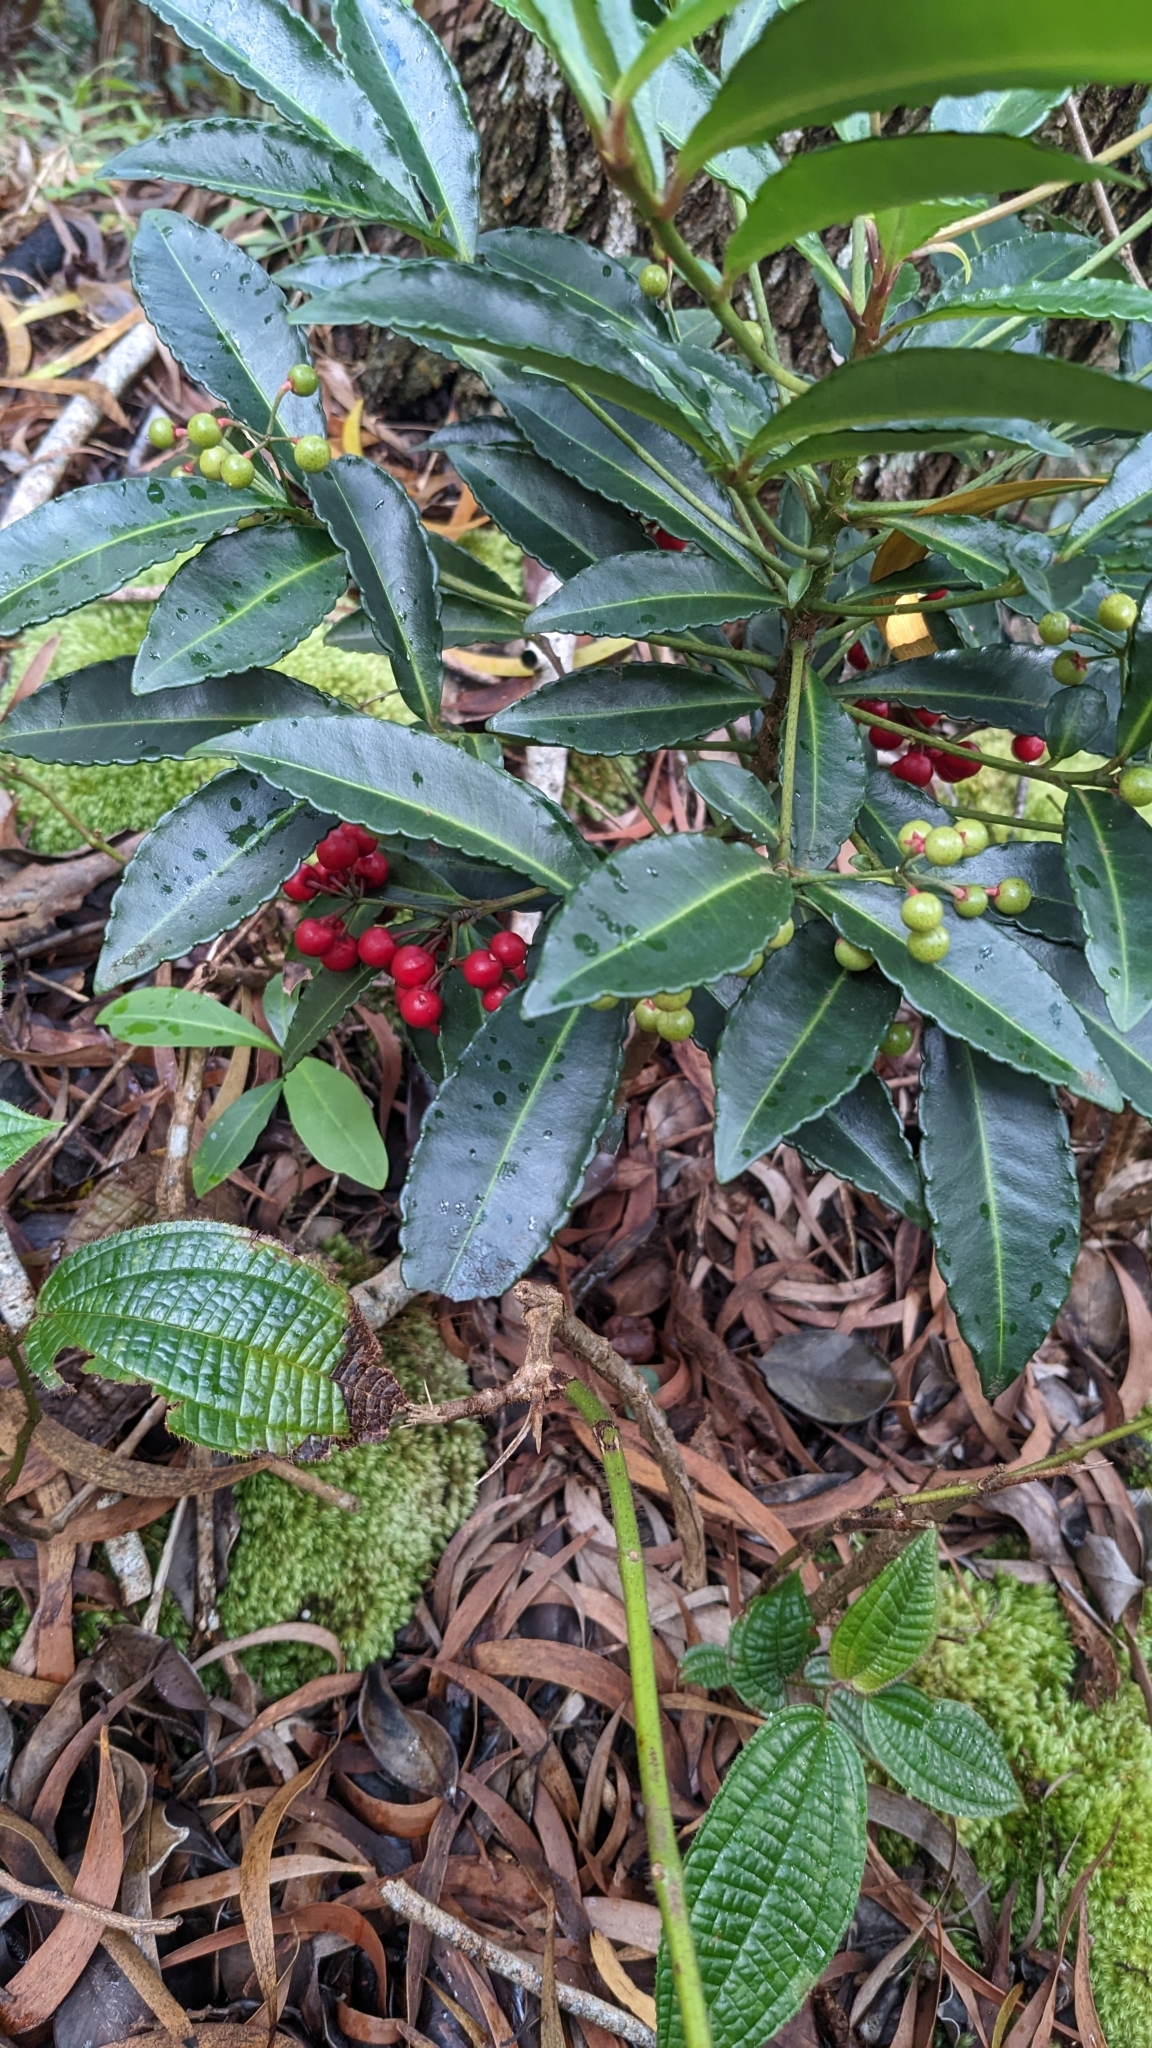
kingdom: Plantae
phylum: Tracheophyta
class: Magnoliopsida
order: Ericales
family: Primulaceae
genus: Ardisia
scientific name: Ardisia crenata
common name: Hen's eyes
